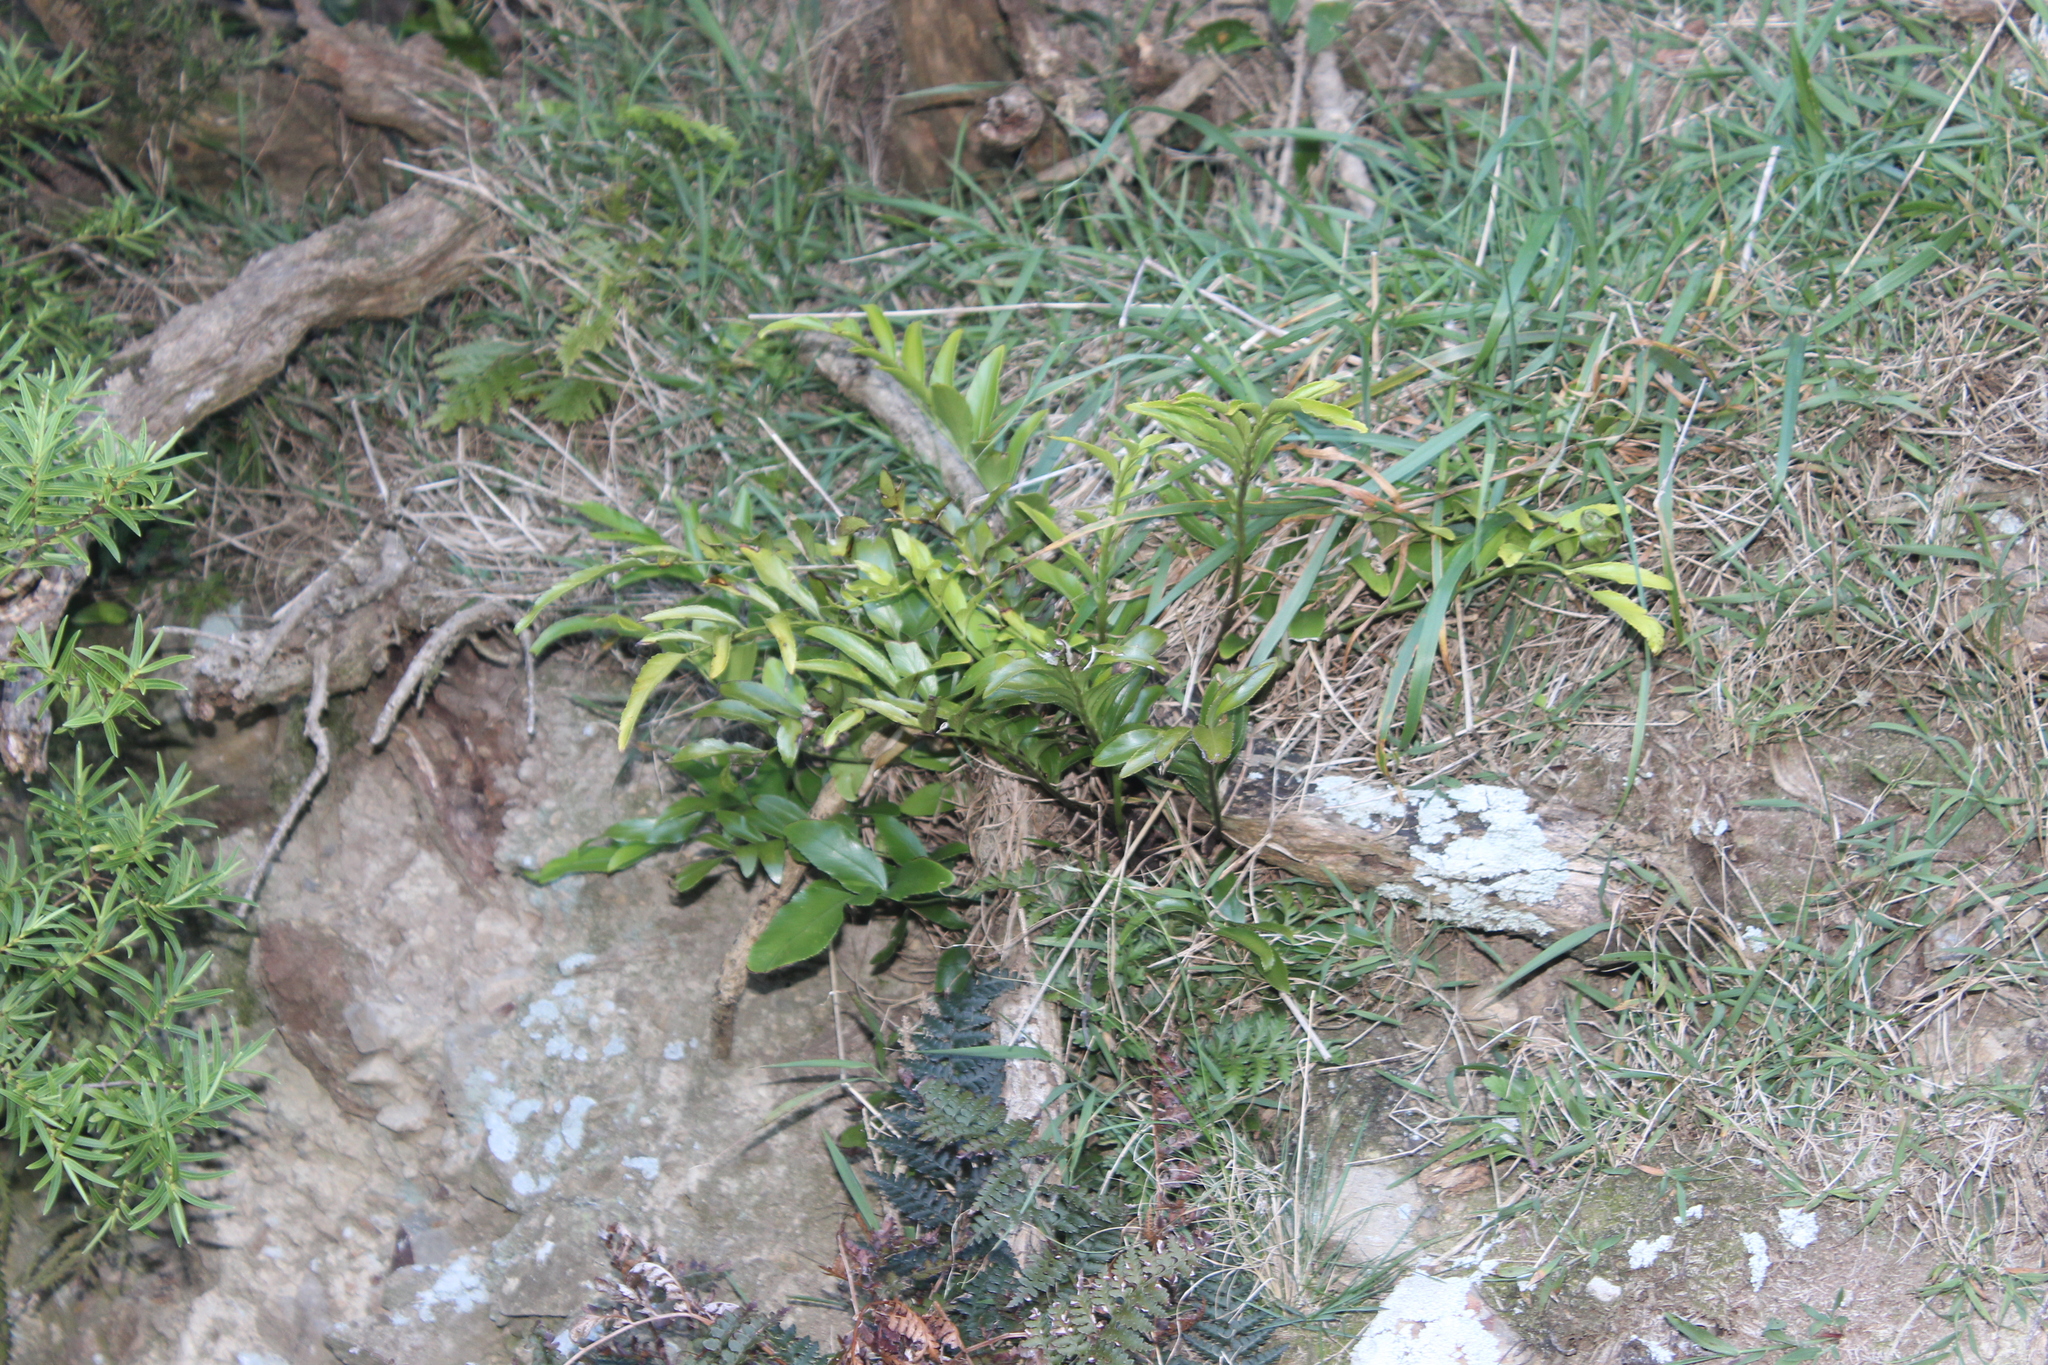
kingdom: Plantae
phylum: Tracheophyta
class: Polypodiopsida
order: Polypodiales
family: Aspleniaceae
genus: Asplenium
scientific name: Asplenium oblongifolium
